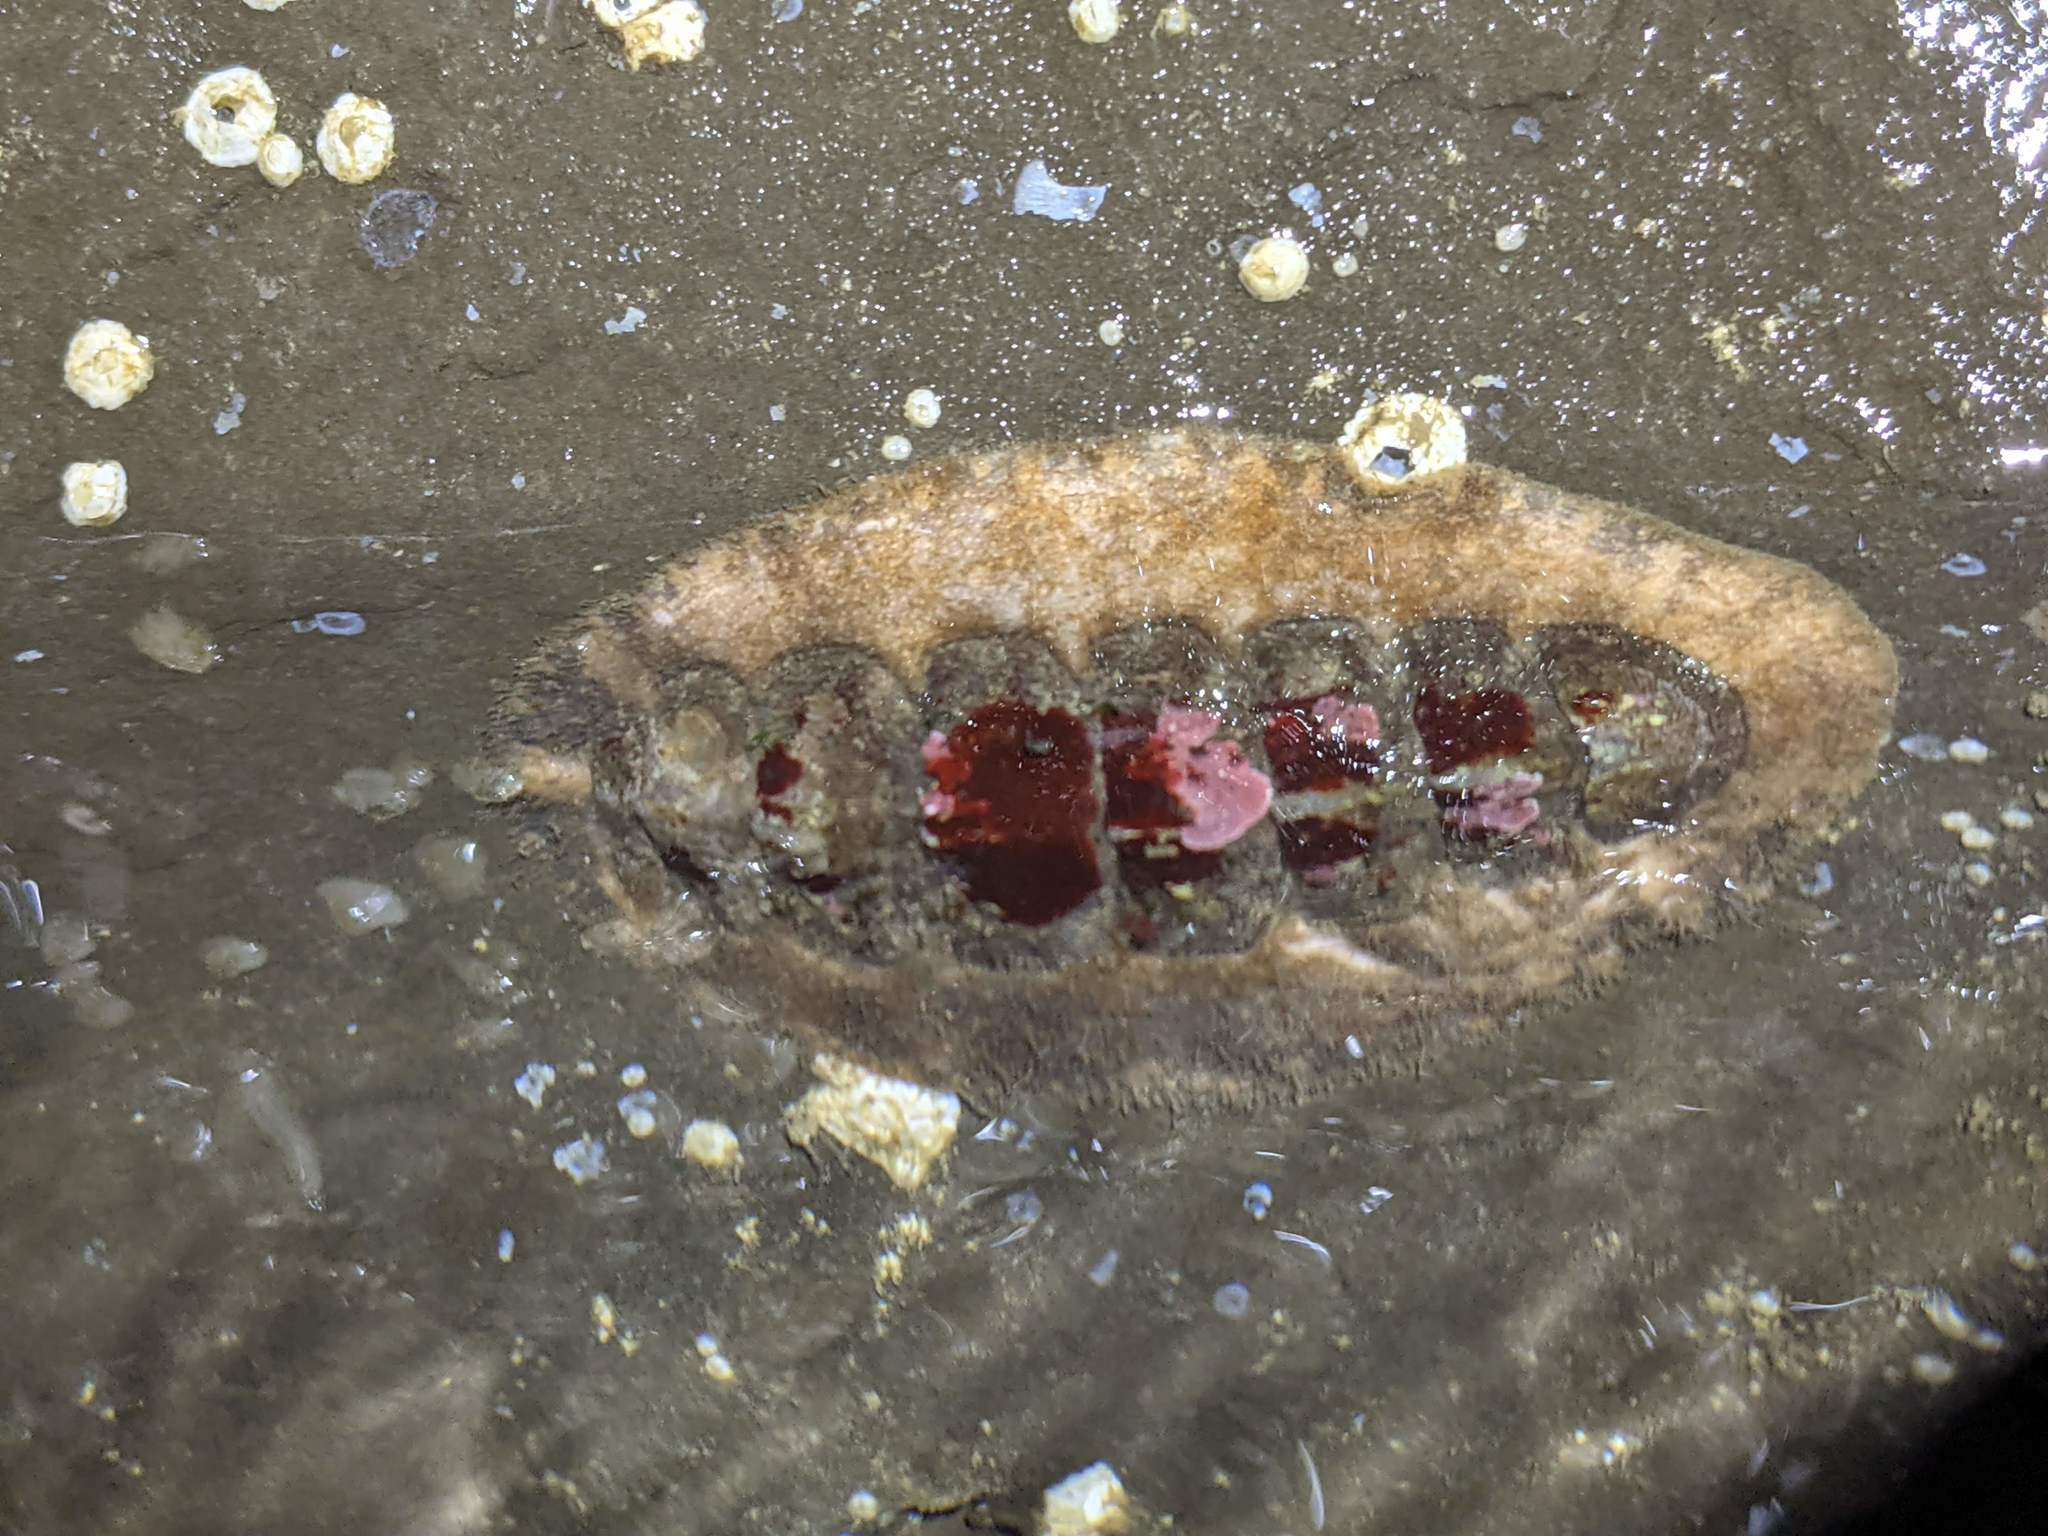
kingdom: Animalia
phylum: Mollusca
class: Polyplacophora
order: Chitonida
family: Mopaliidae
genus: Mopalia
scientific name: Mopalia hindsii
